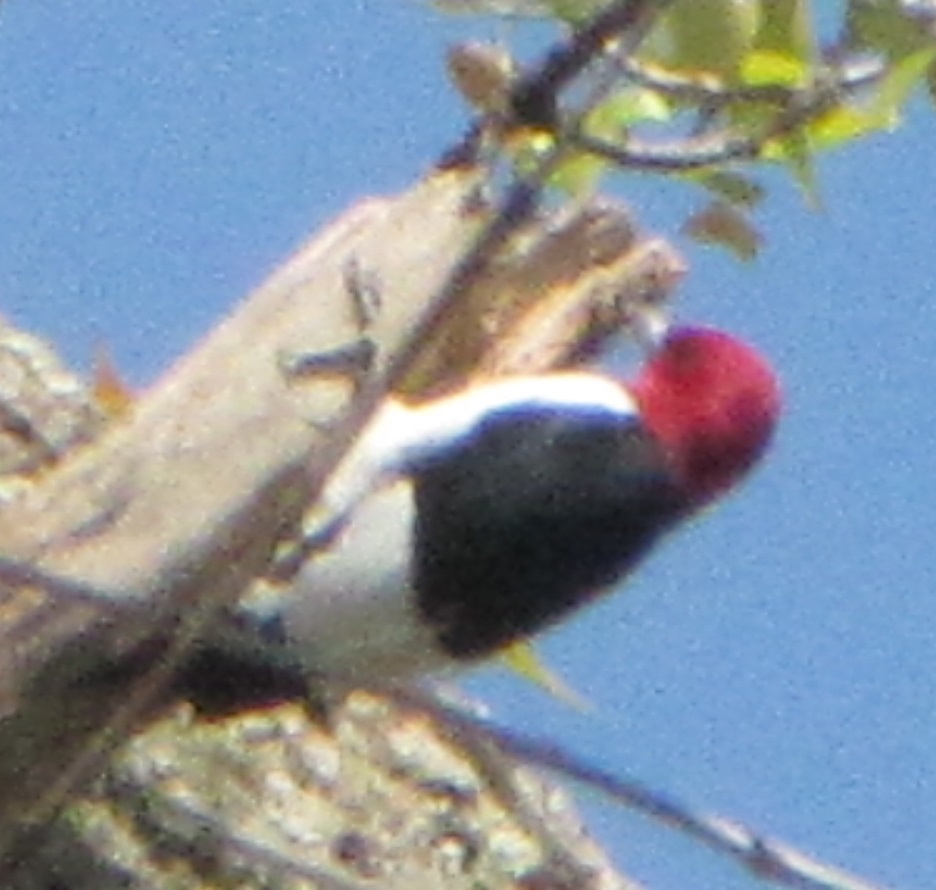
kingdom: Animalia
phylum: Chordata
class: Aves
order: Piciformes
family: Picidae
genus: Melanerpes
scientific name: Melanerpes erythrocephalus
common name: Red-headed woodpecker
